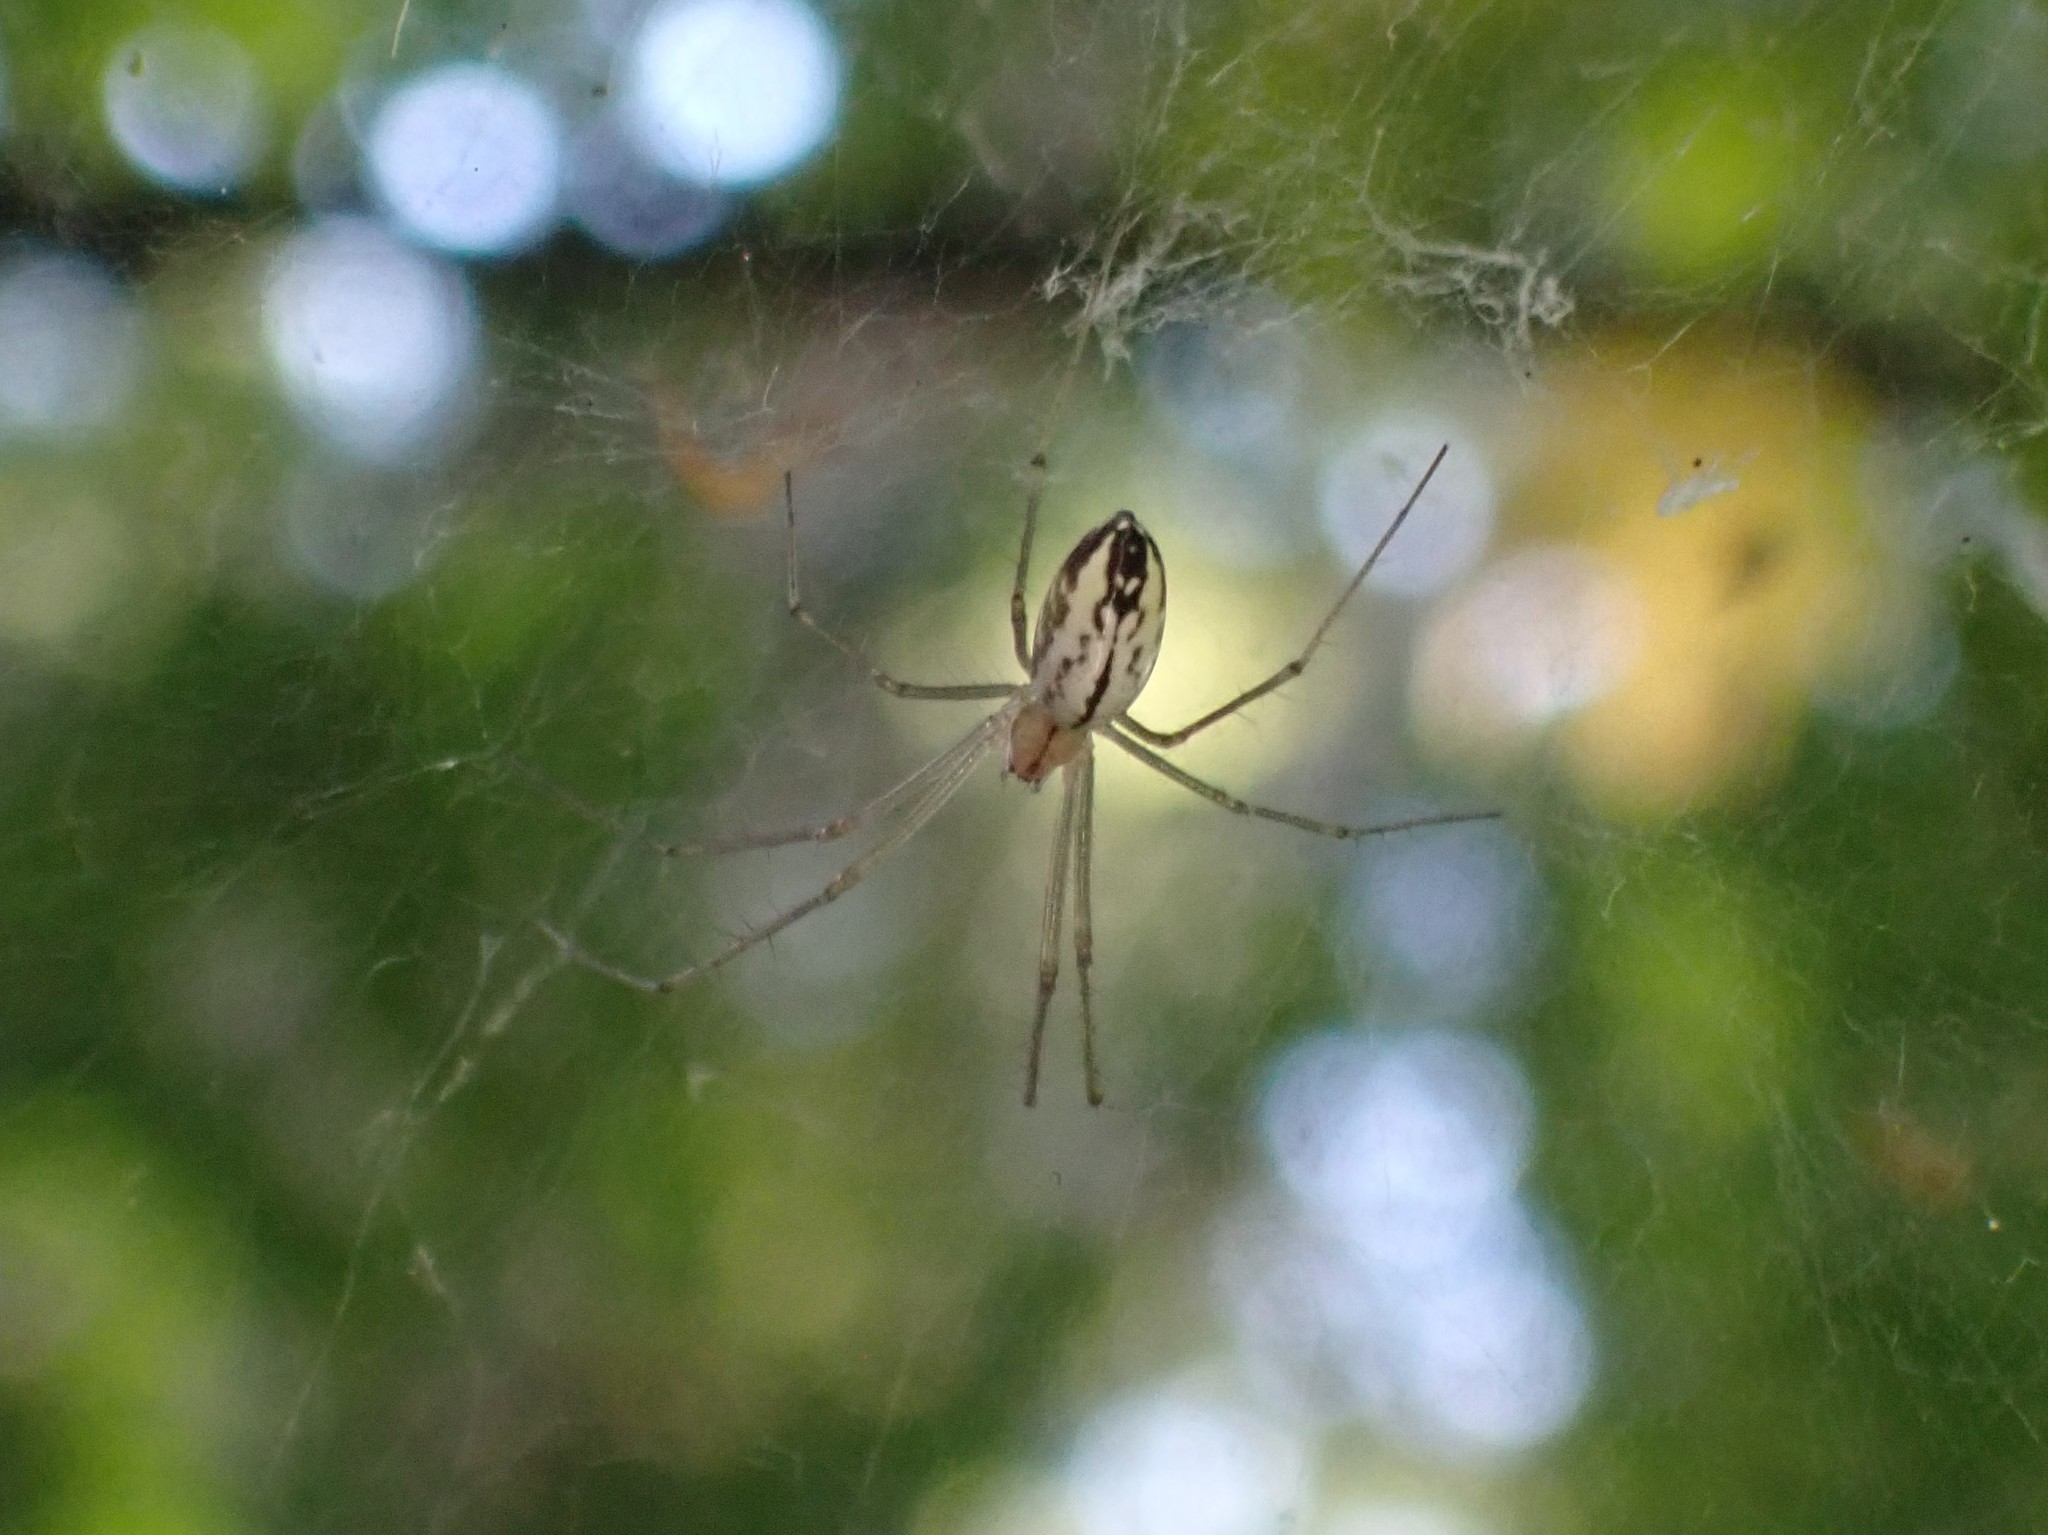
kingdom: Animalia
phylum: Arthropoda
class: Arachnida
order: Araneae
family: Linyphiidae
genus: Neriene
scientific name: Neriene litigiosa
